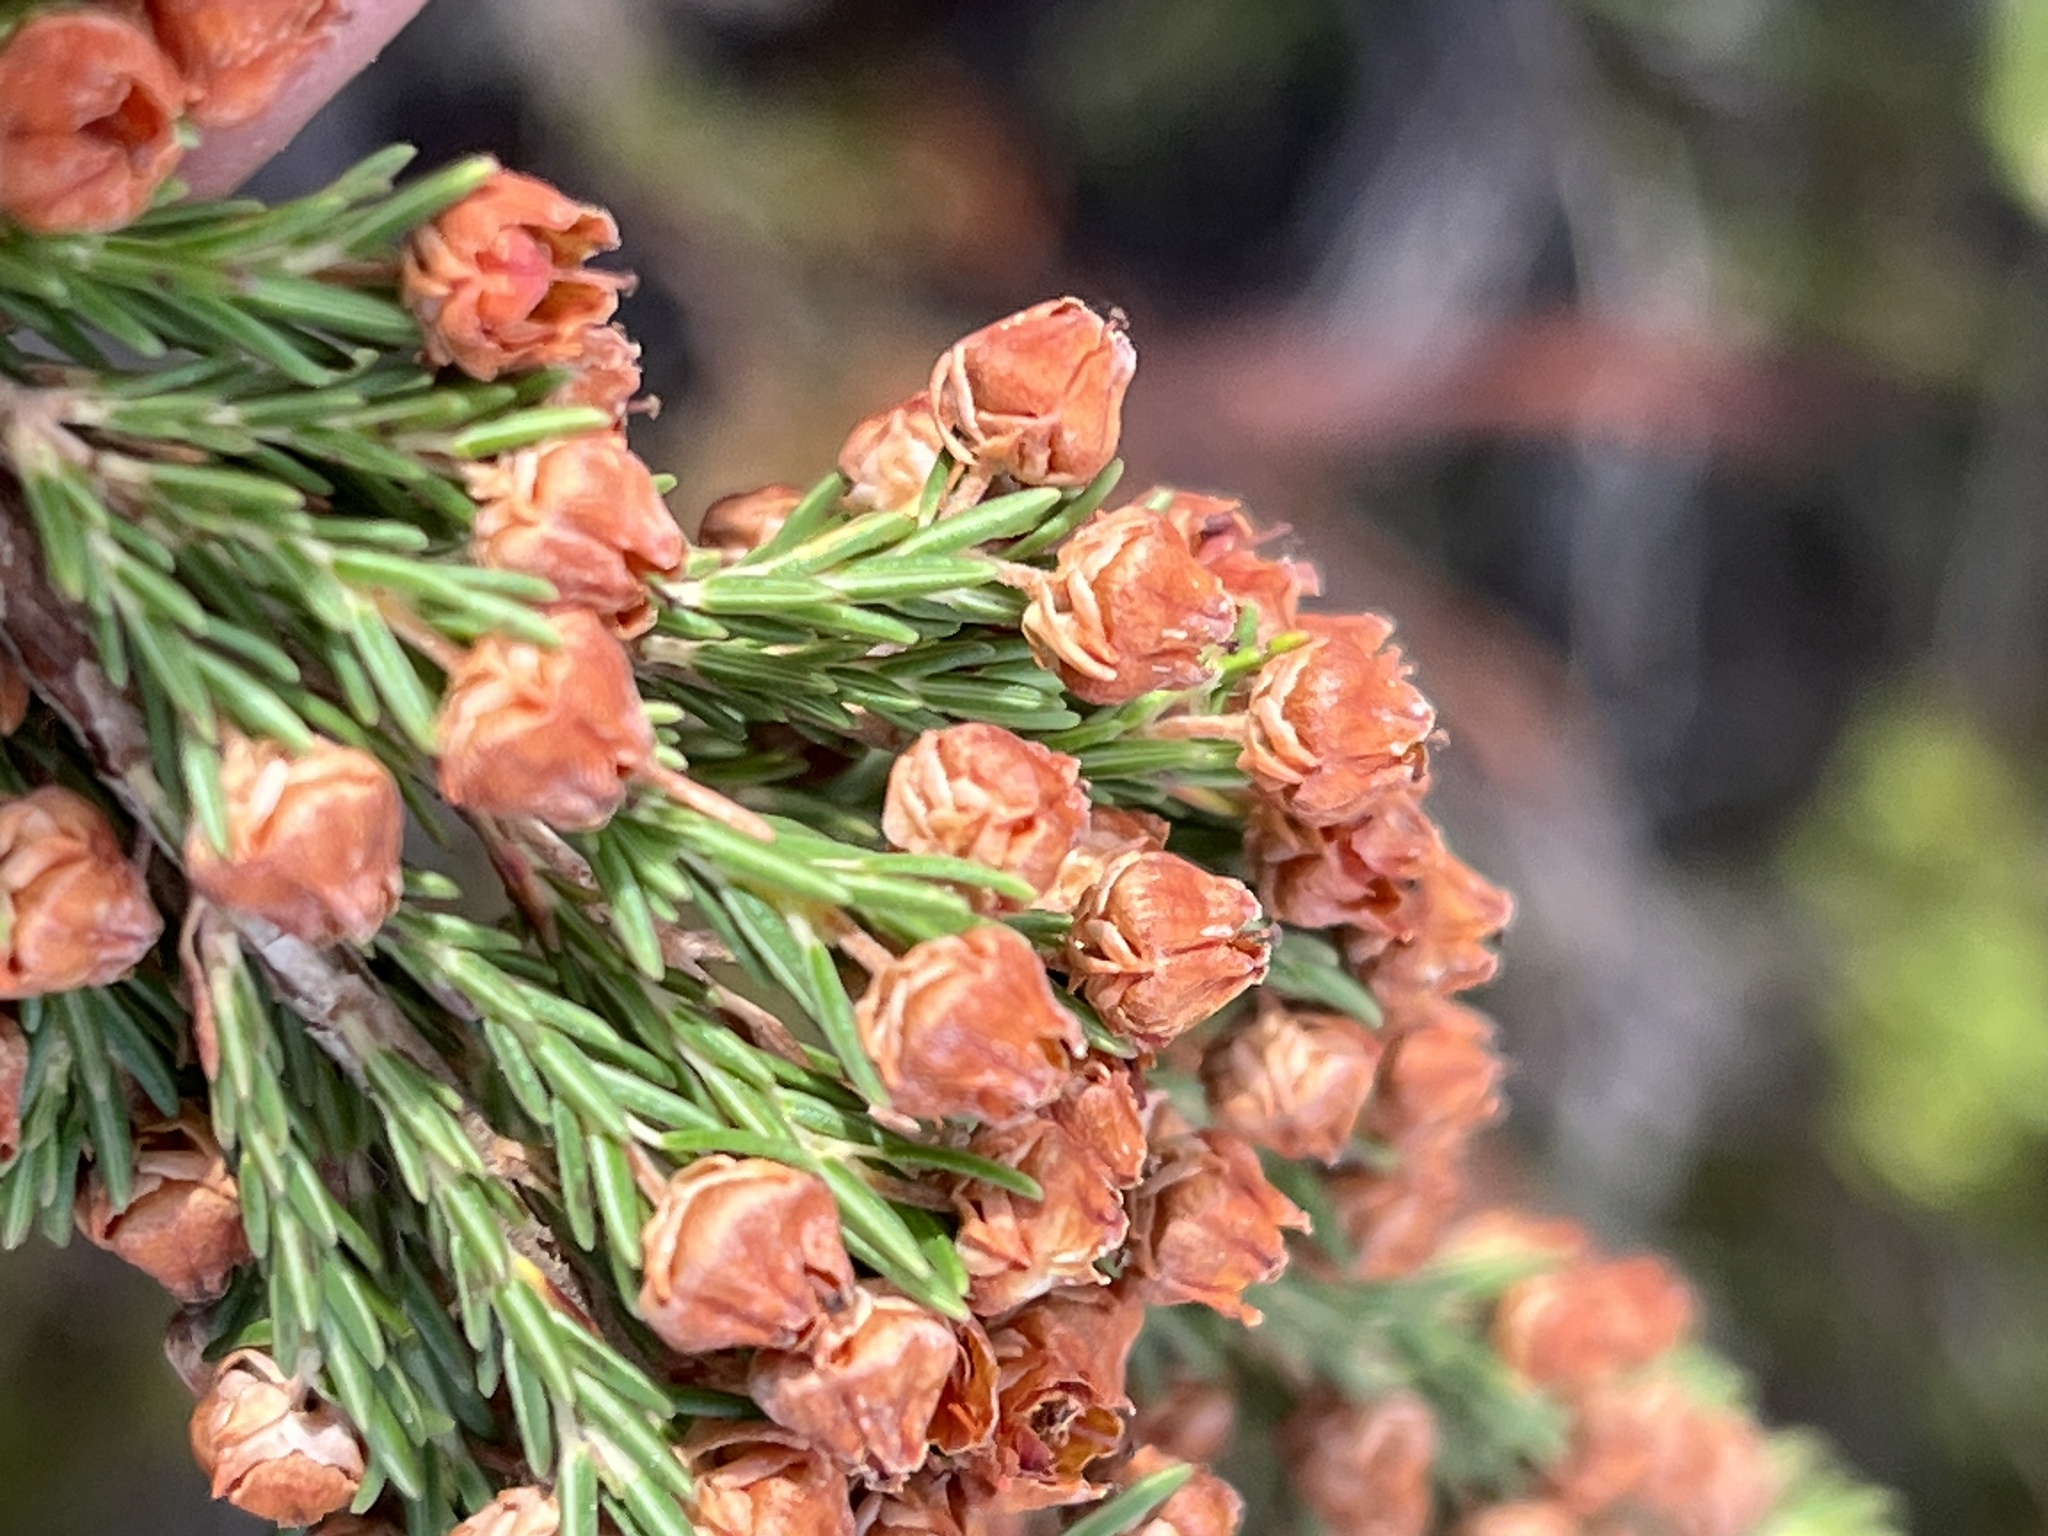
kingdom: Plantae
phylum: Tracheophyta
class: Magnoliopsida
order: Ericales
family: Ericaceae
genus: Erica
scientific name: Erica condensata
